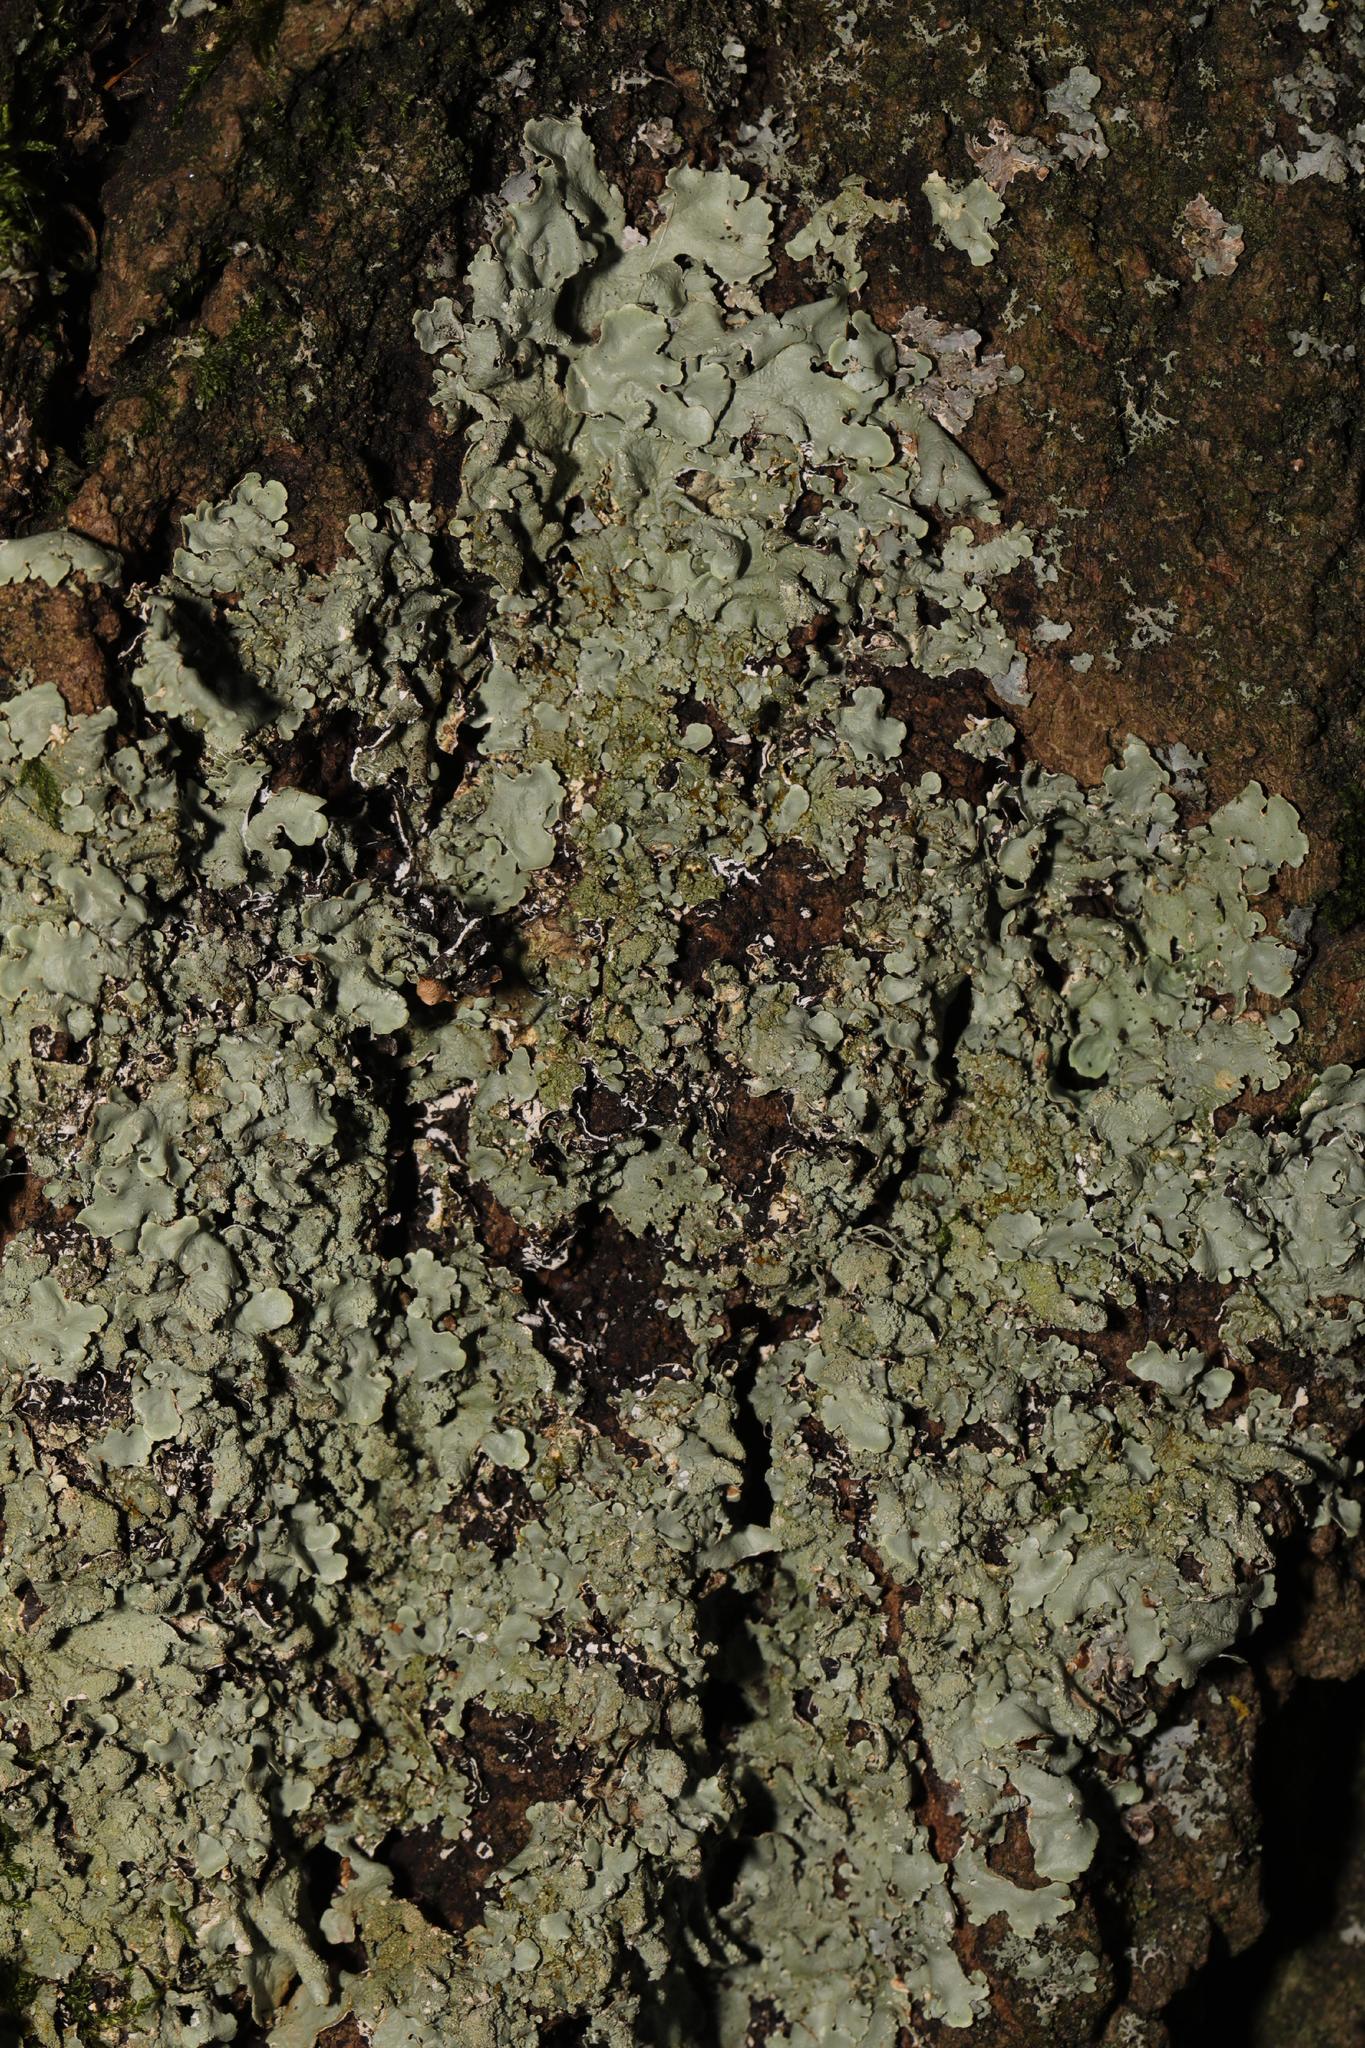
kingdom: Fungi
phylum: Ascomycota
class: Lecanoromycetes
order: Lecanorales
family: Parmeliaceae
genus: Flavoparmelia
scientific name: Flavoparmelia caperata
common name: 40-mile per hour lichen
